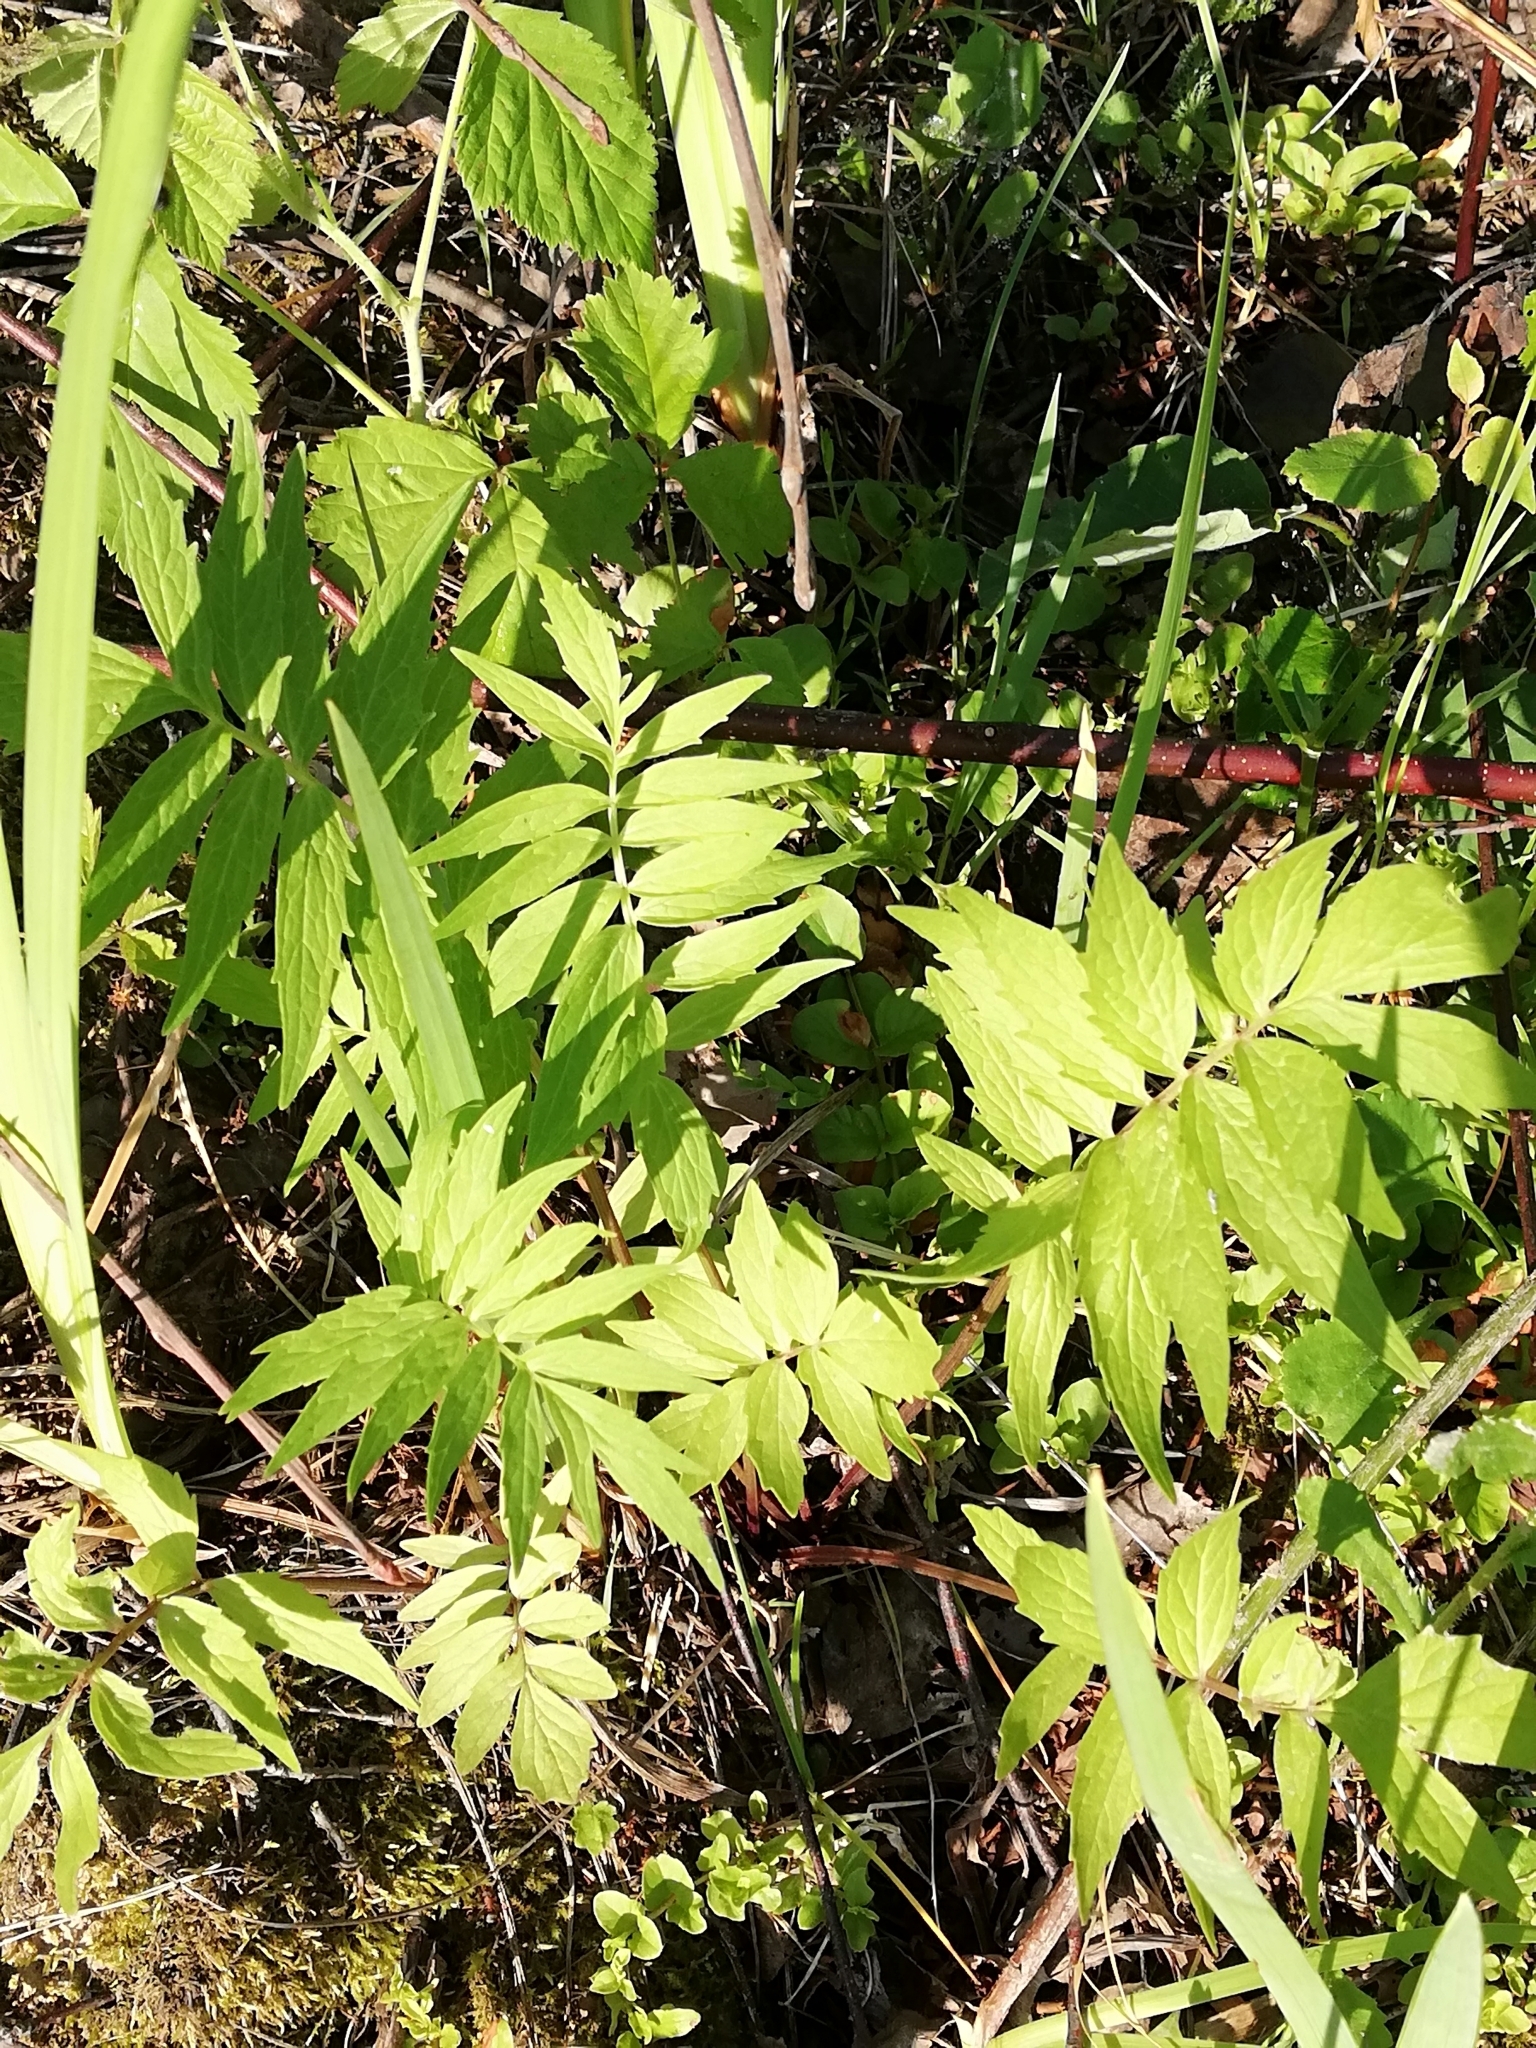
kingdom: Plantae
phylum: Tracheophyta
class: Magnoliopsida
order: Dipsacales
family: Caprifoliaceae
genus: Valeriana
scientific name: Valeriana officinalis
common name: Common valerian
